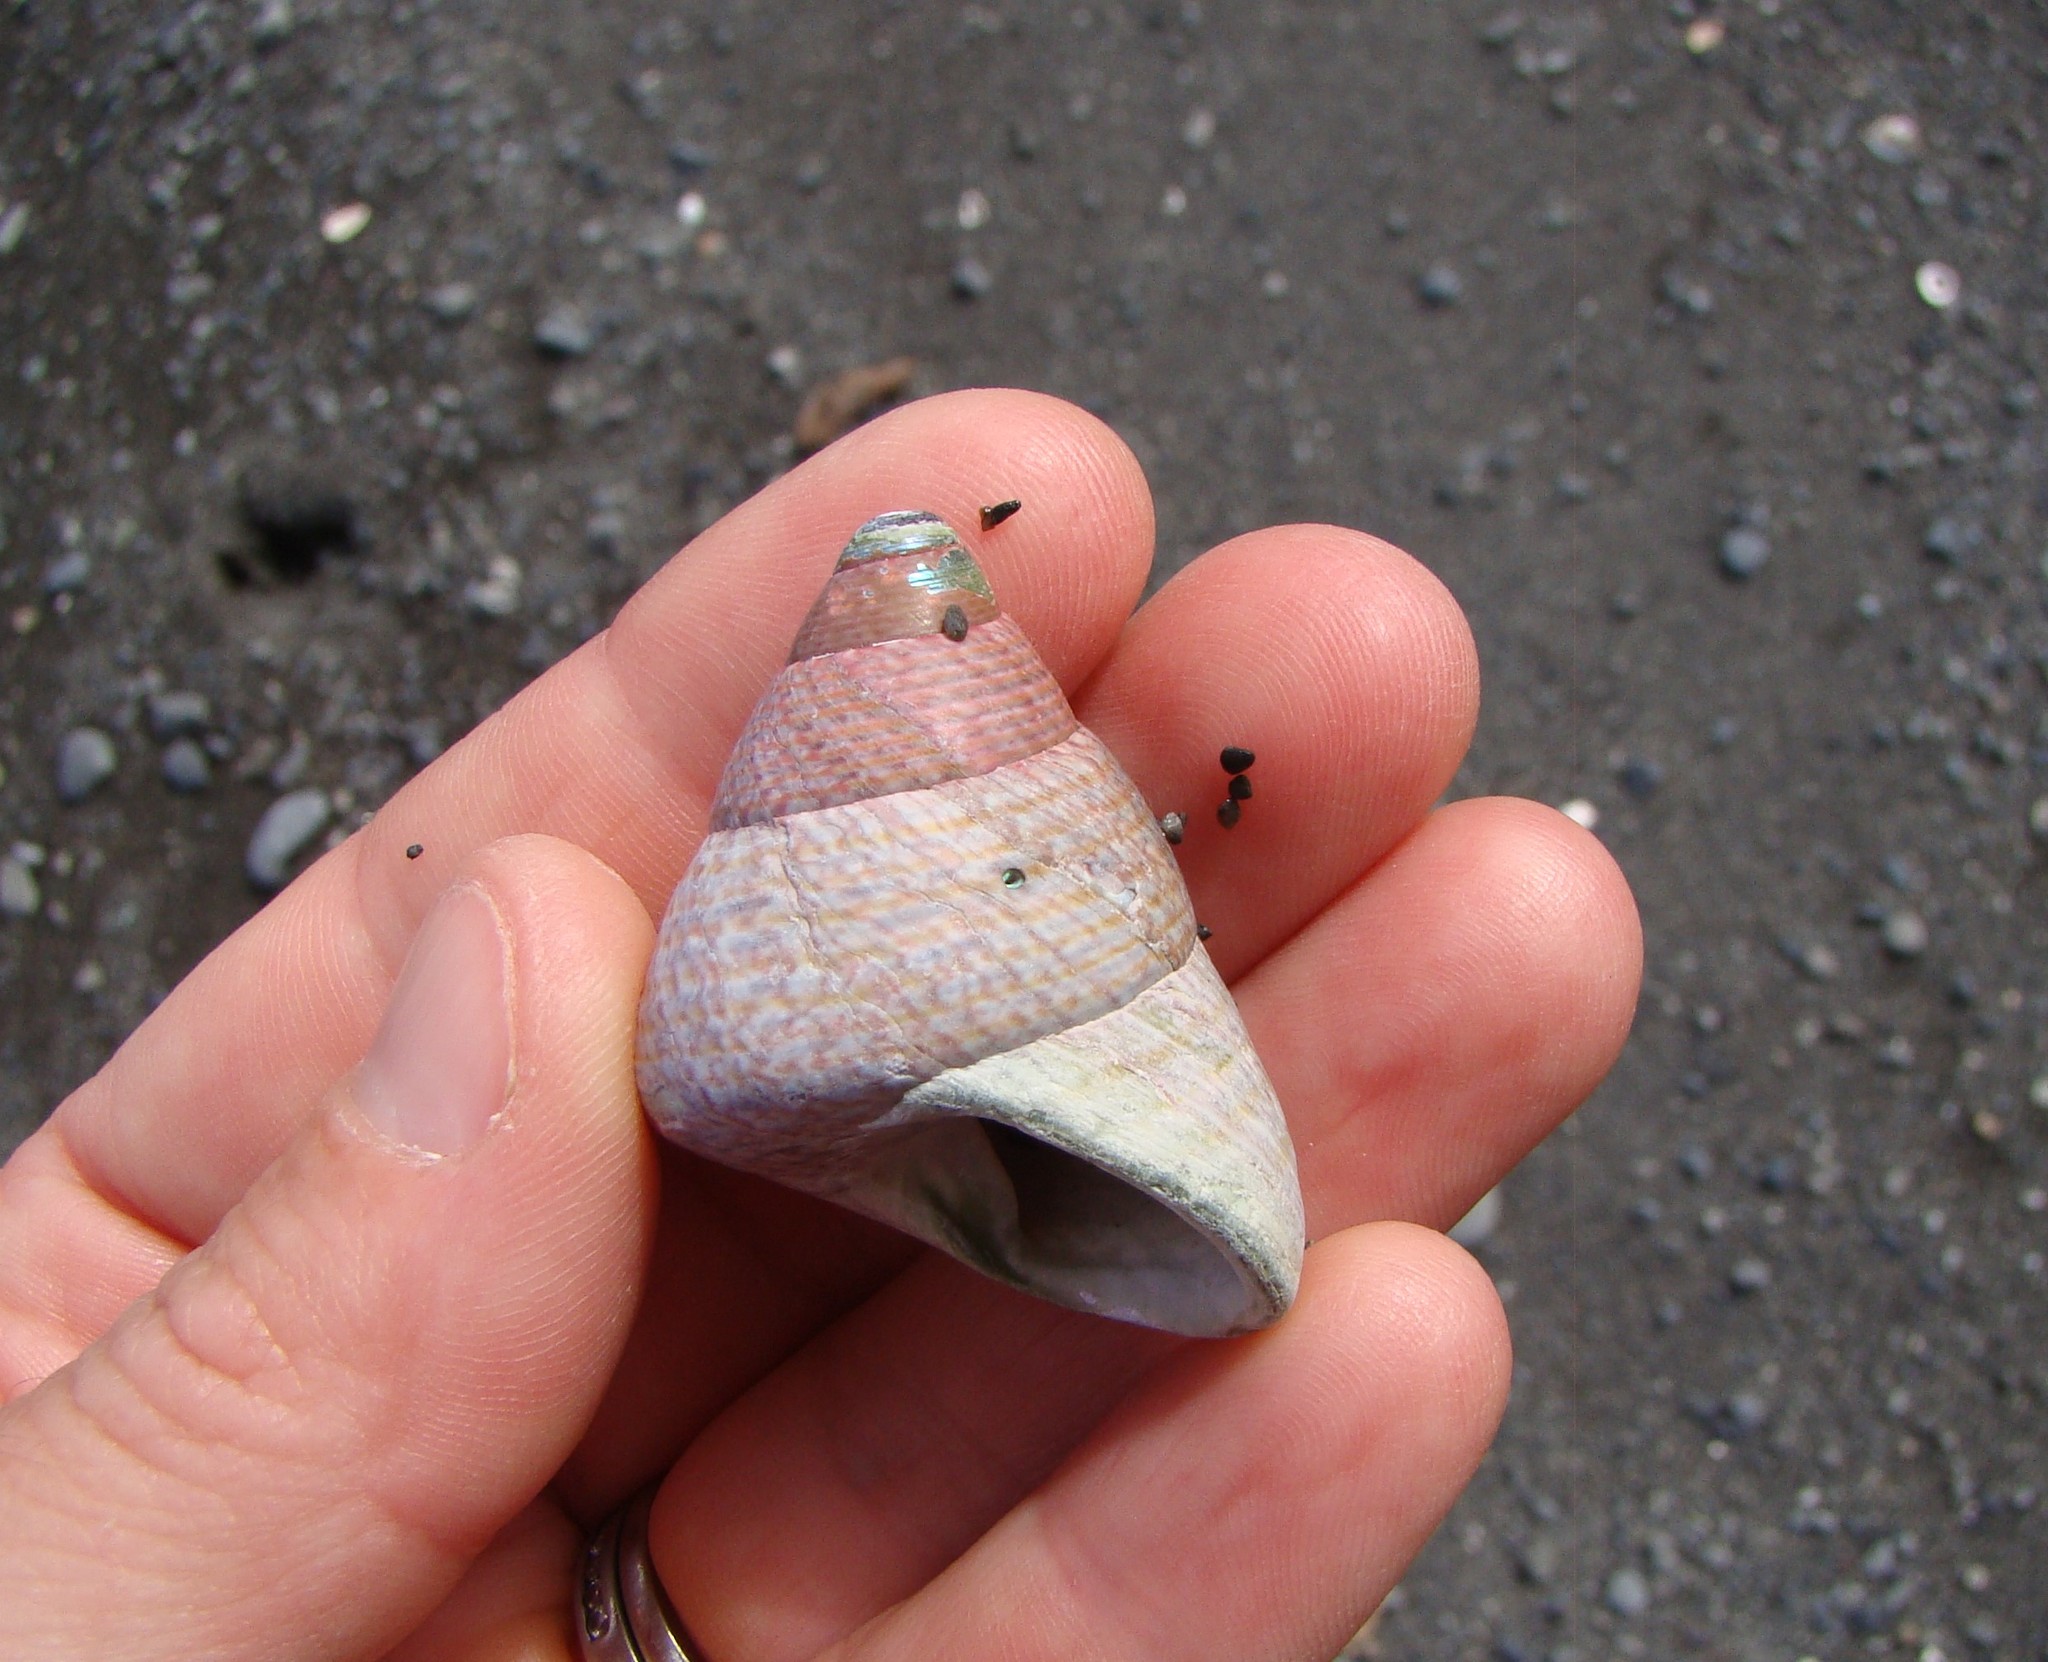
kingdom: Animalia
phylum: Mollusca
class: Gastropoda
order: Trochida
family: Trochidae
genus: Cantharidus
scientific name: Cantharidus opalus
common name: Opal jewel topsnail
